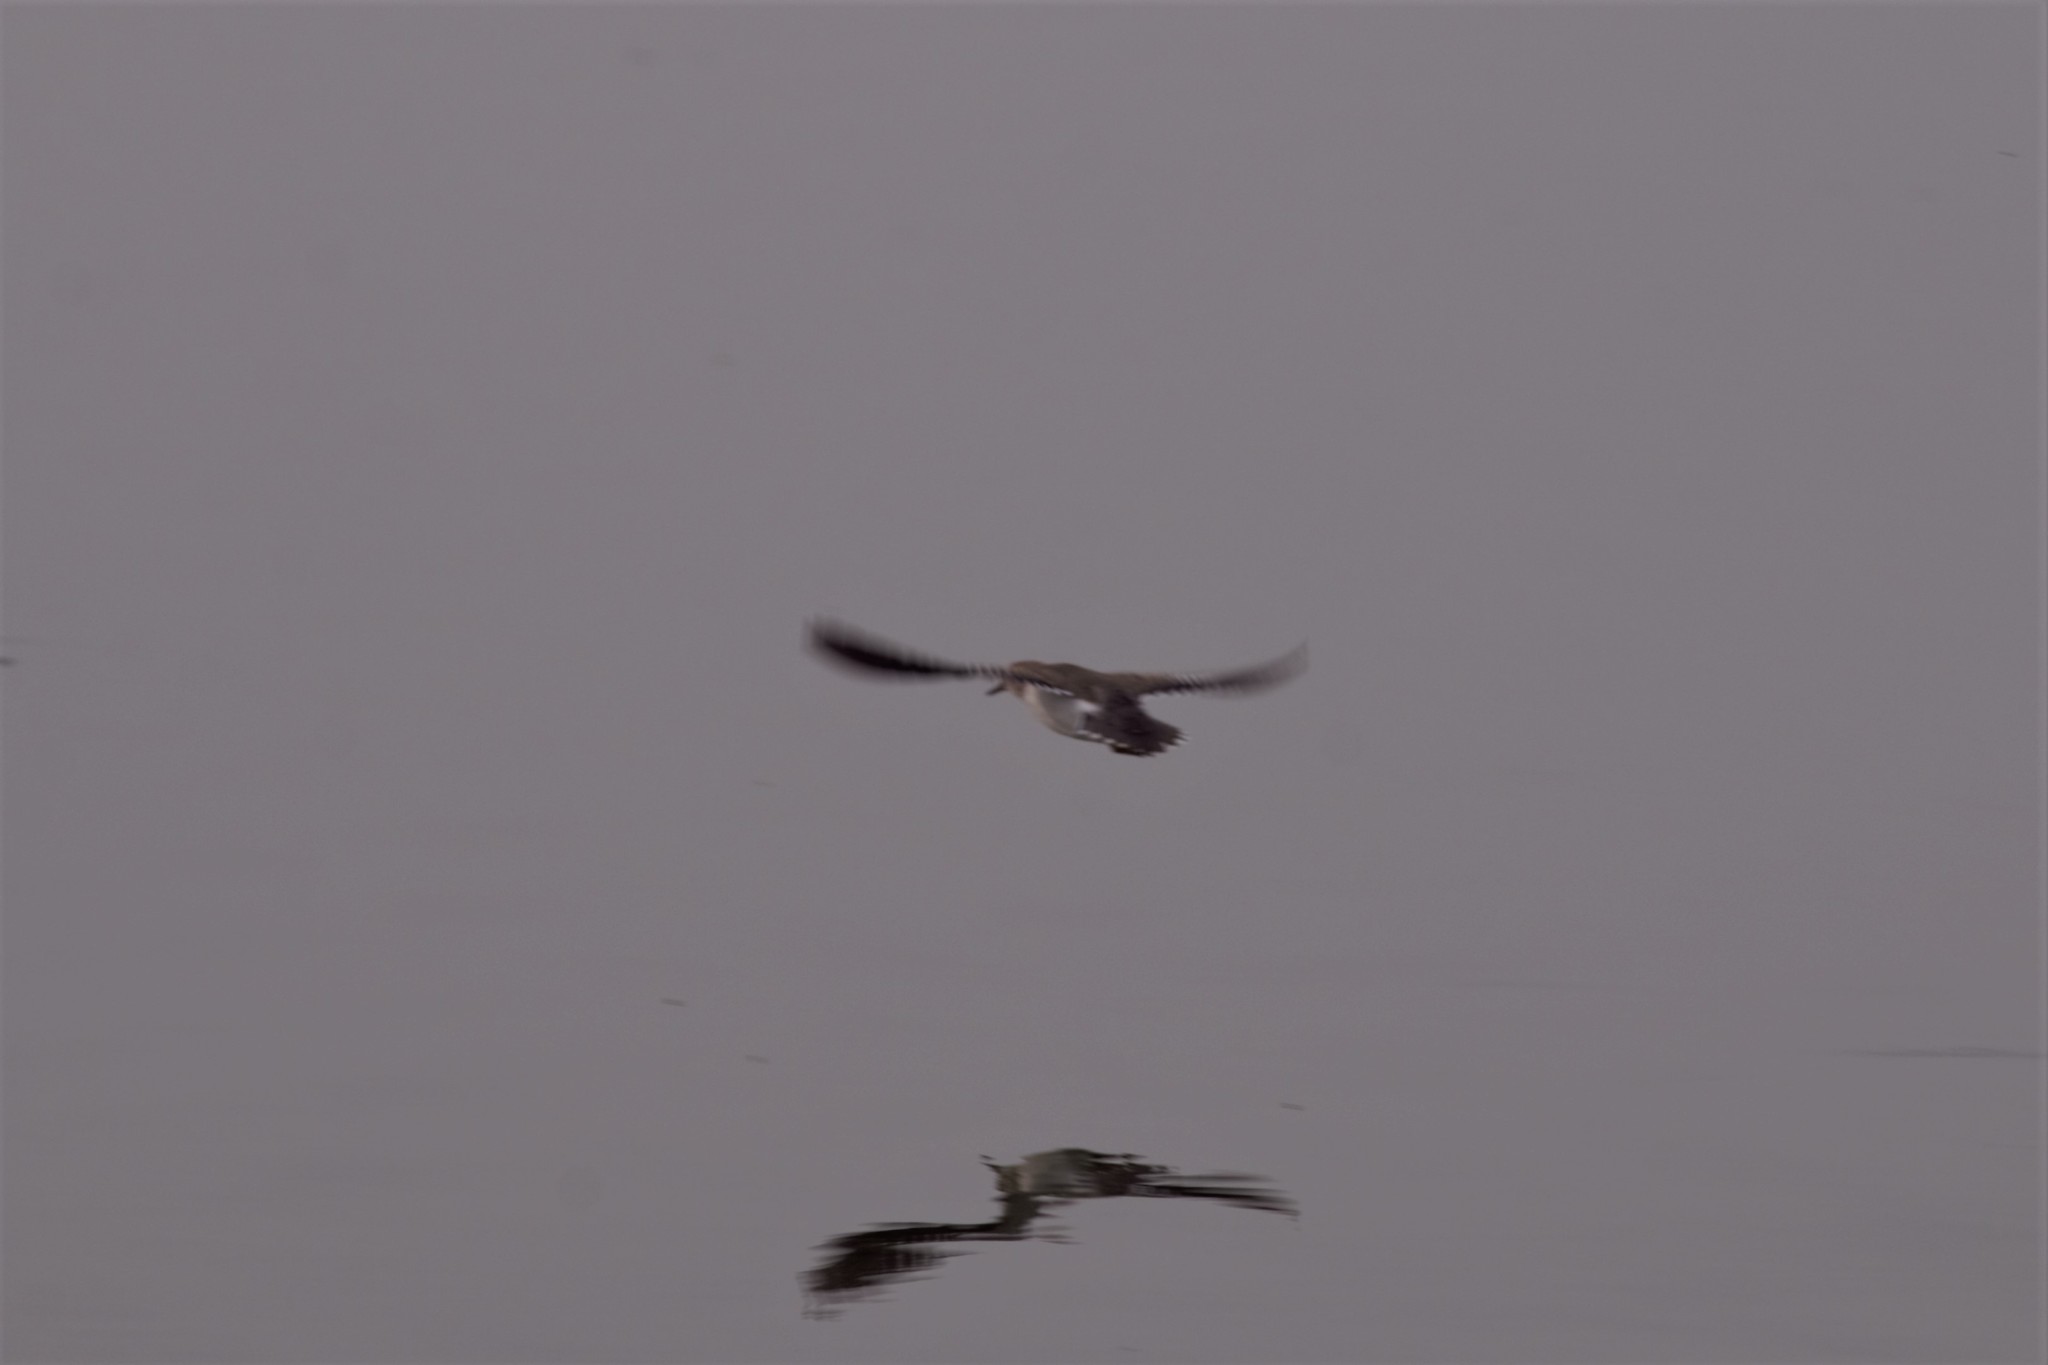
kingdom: Animalia
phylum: Chordata
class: Aves
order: Charadriiformes
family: Scolopacidae
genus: Actitis
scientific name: Actitis macularius
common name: Spotted sandpiper
